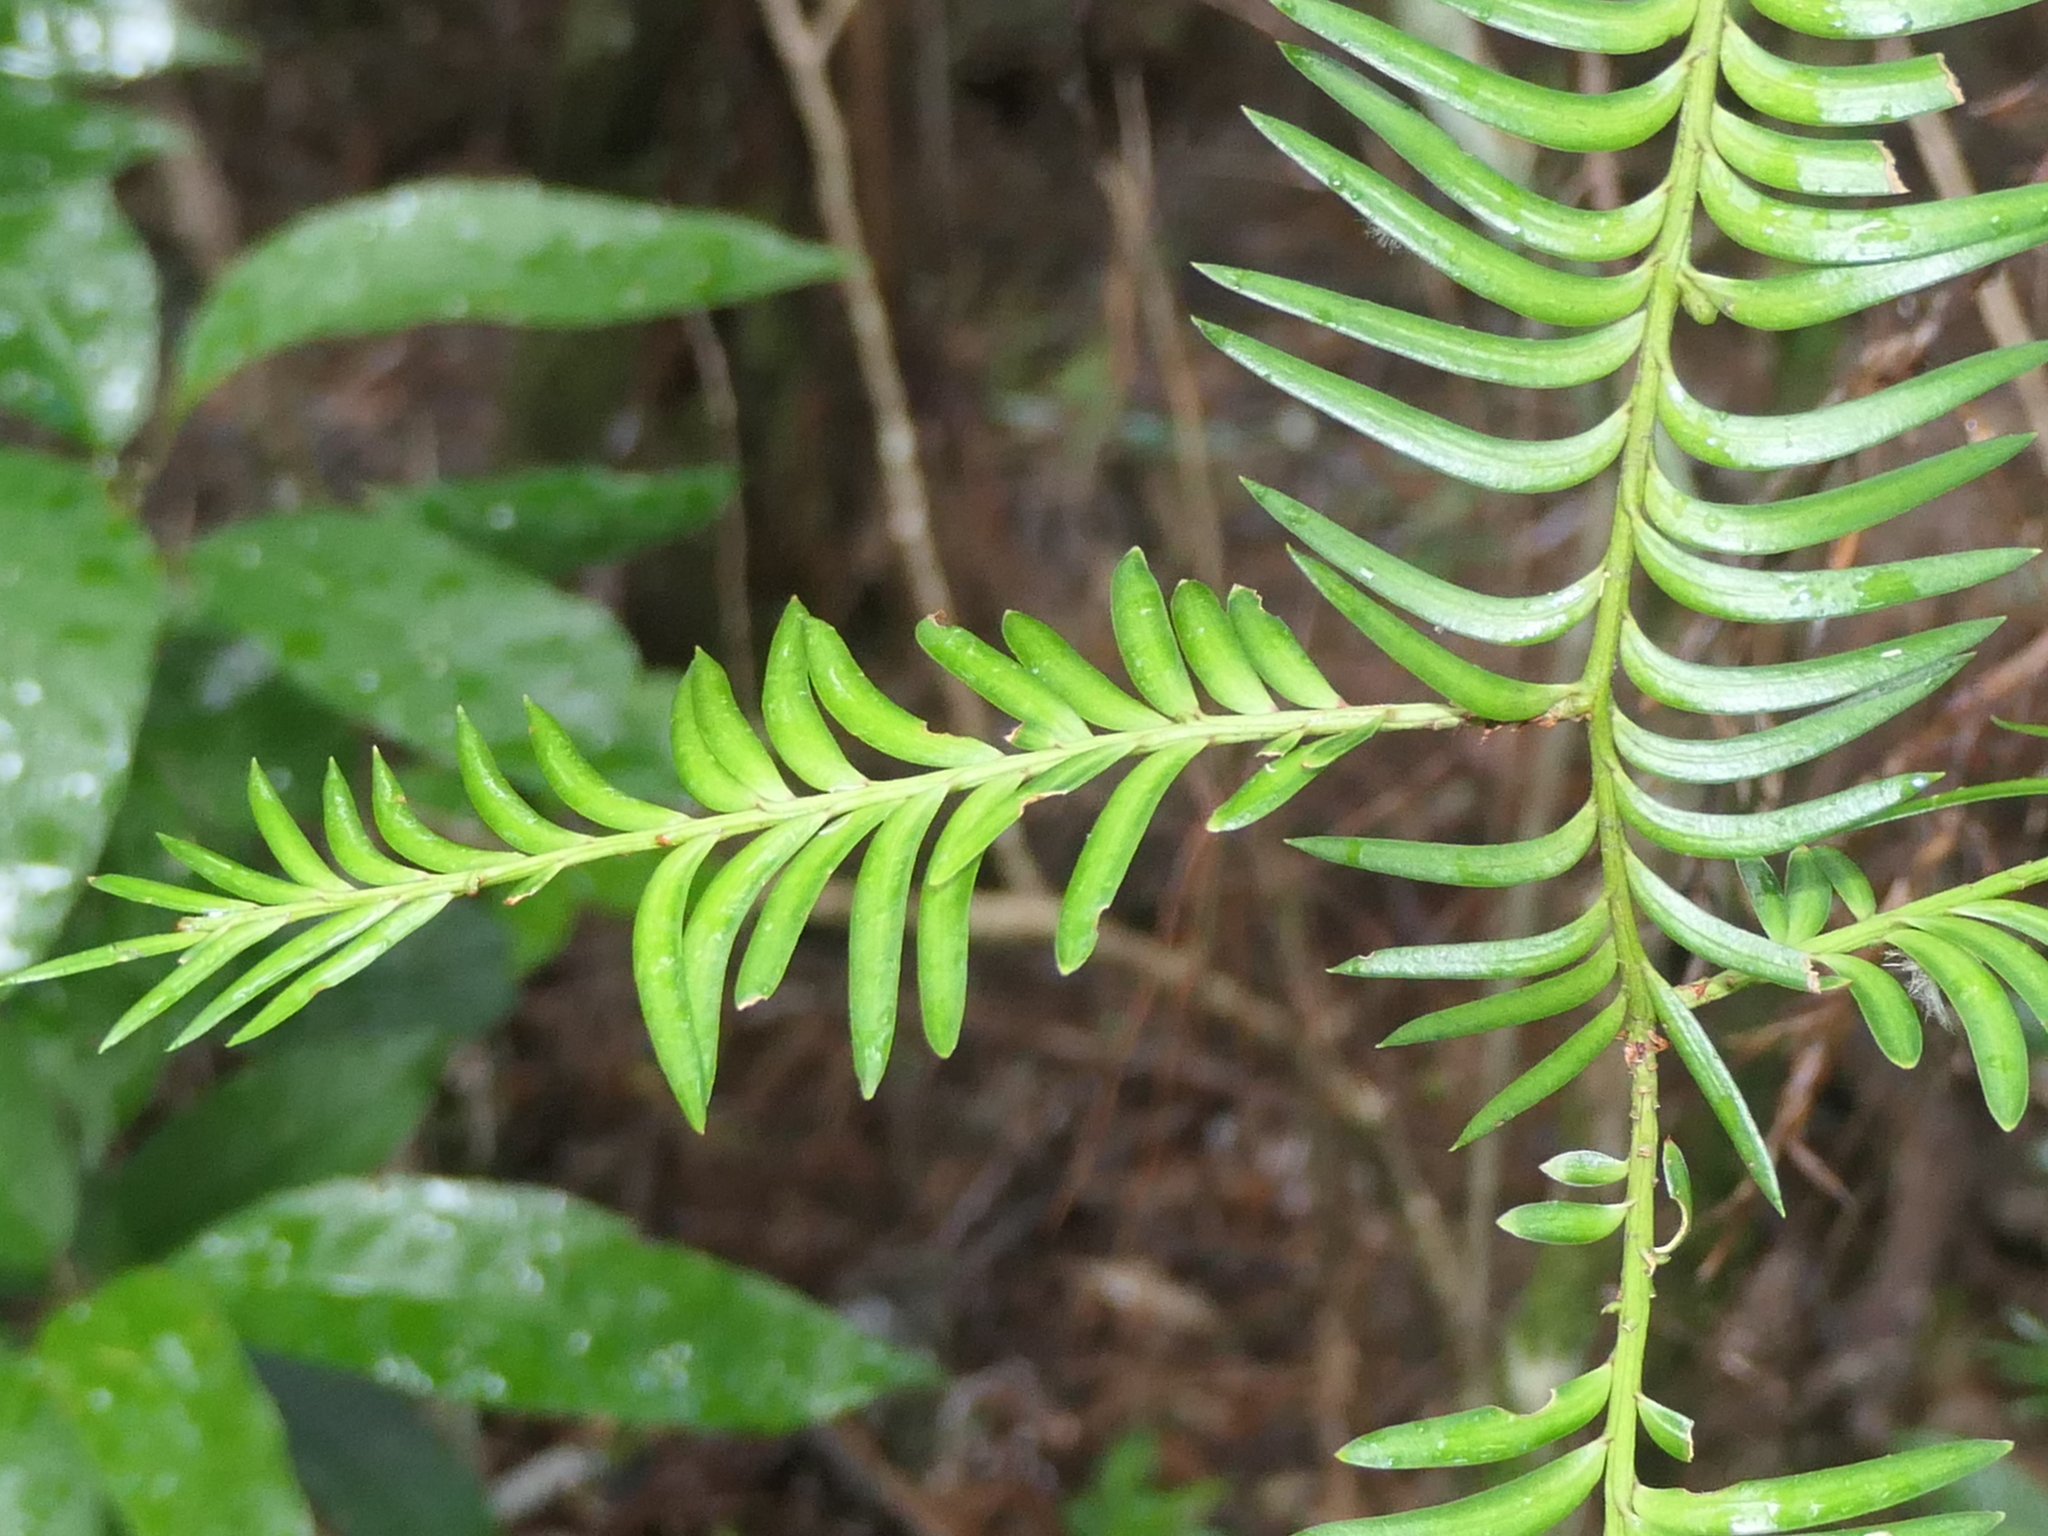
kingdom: Plantae
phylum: Tracheophyta
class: Pinopsida
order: Pinales
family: Podocarpaceae
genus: Prumnopitys
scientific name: Prumnopitys ferruginea
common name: Brown pine
